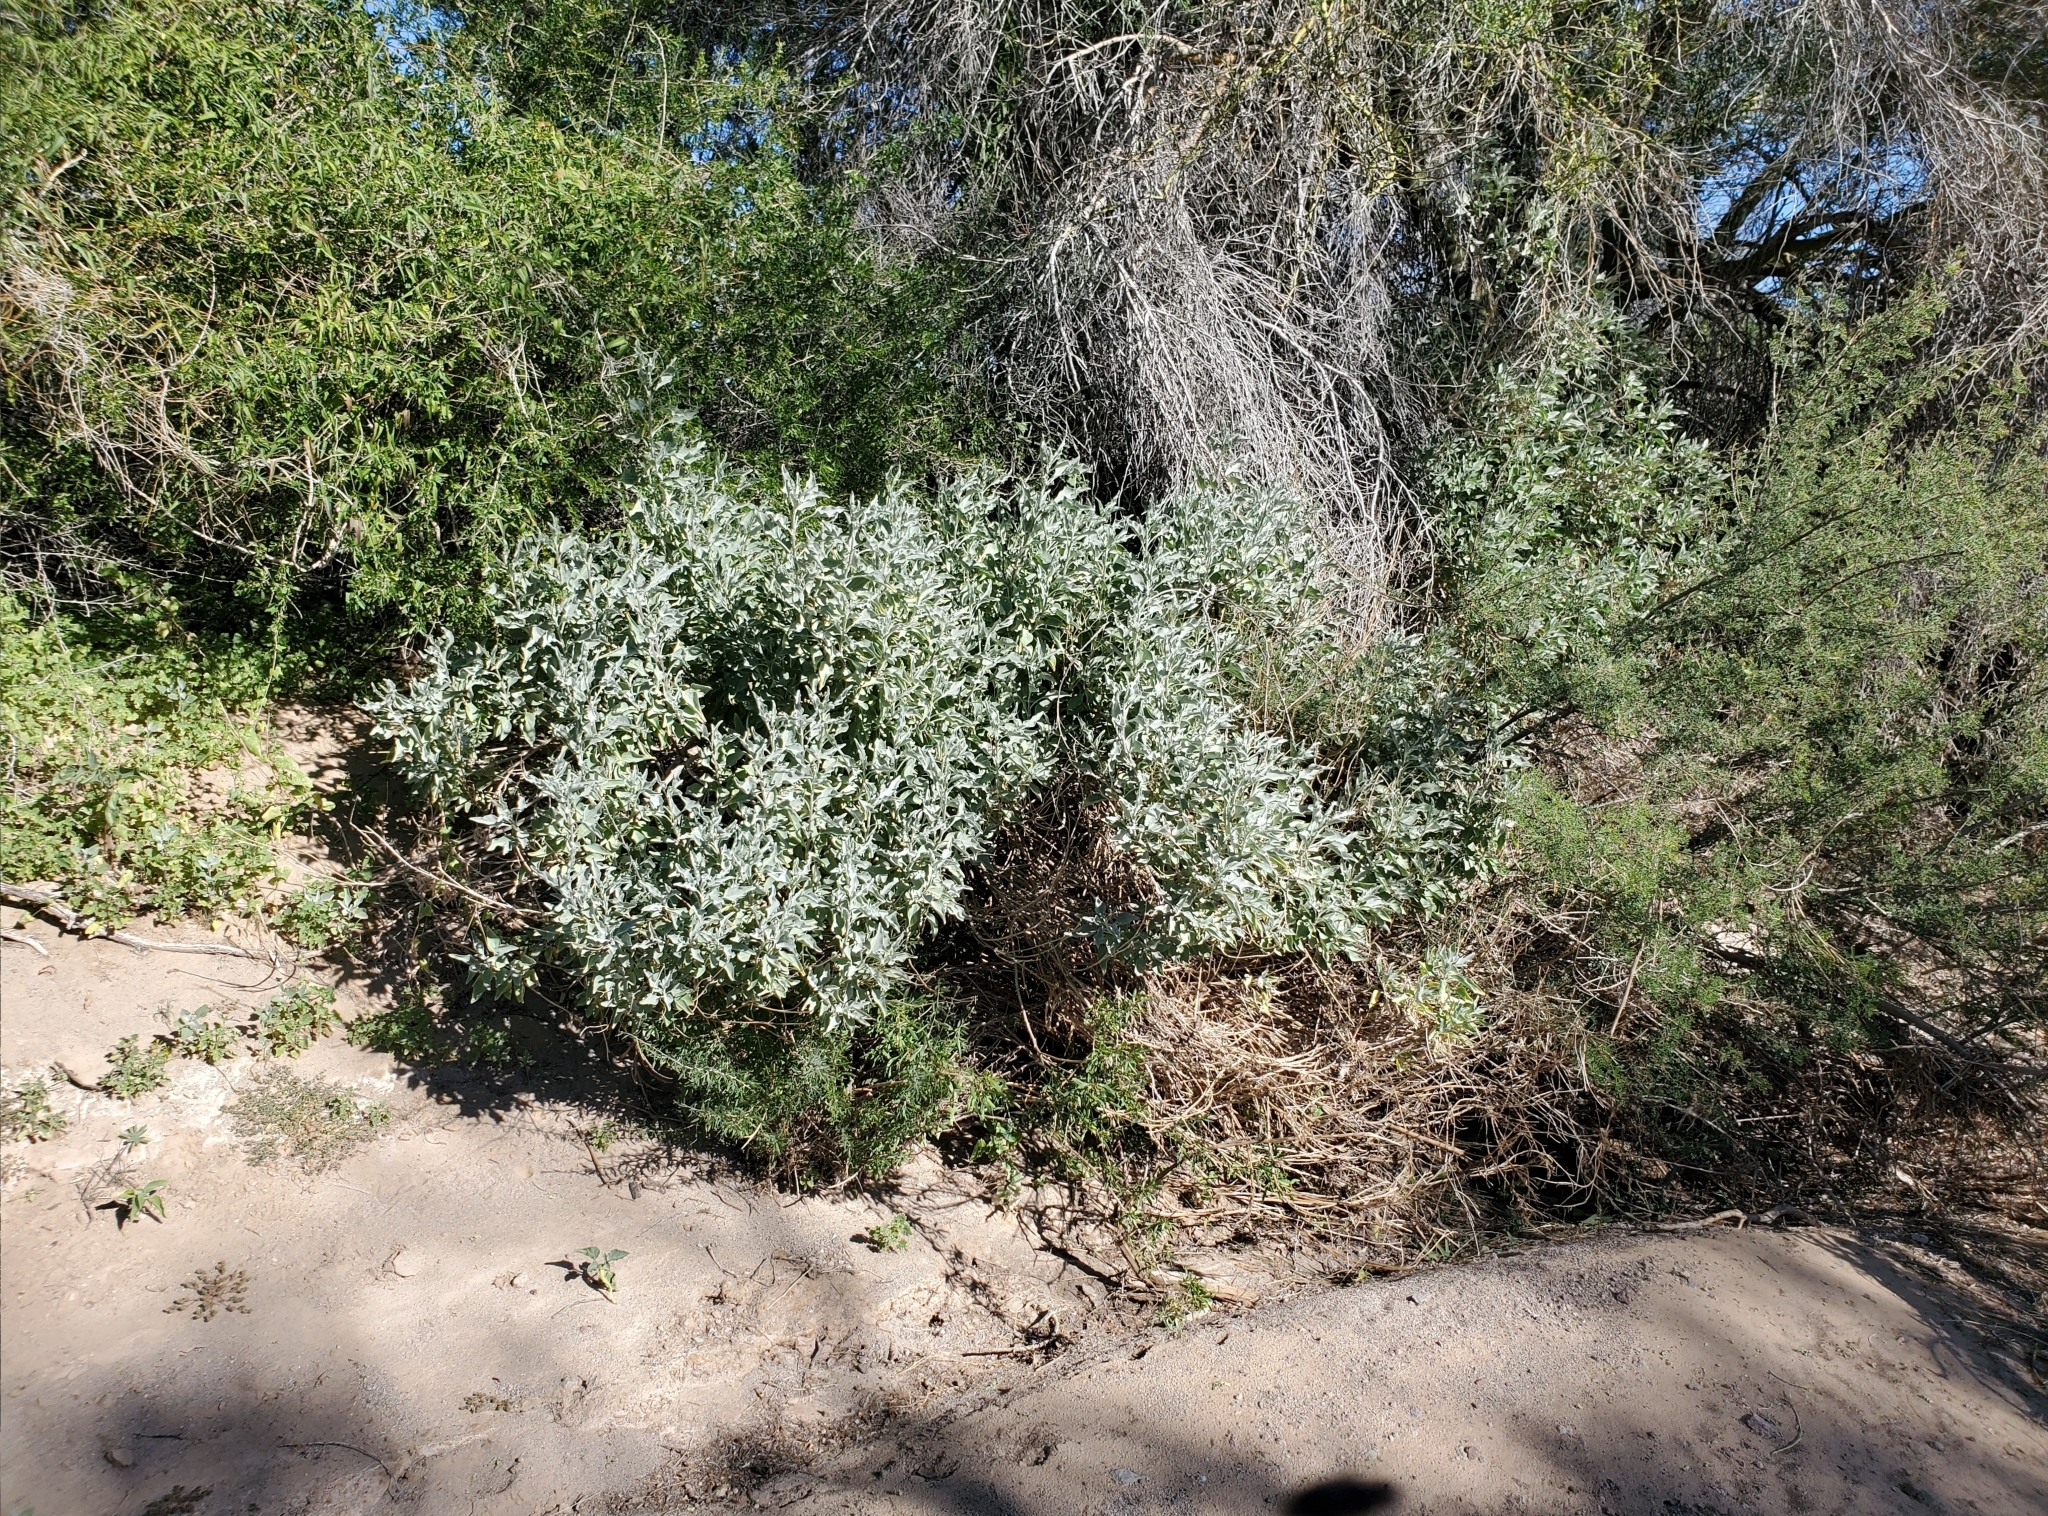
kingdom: Plantae
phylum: Tracheophyta
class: Magnoliopsida
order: Asterales
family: Asteraceae
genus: Encelia
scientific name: Encelia farinosa
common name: Brittlebush
